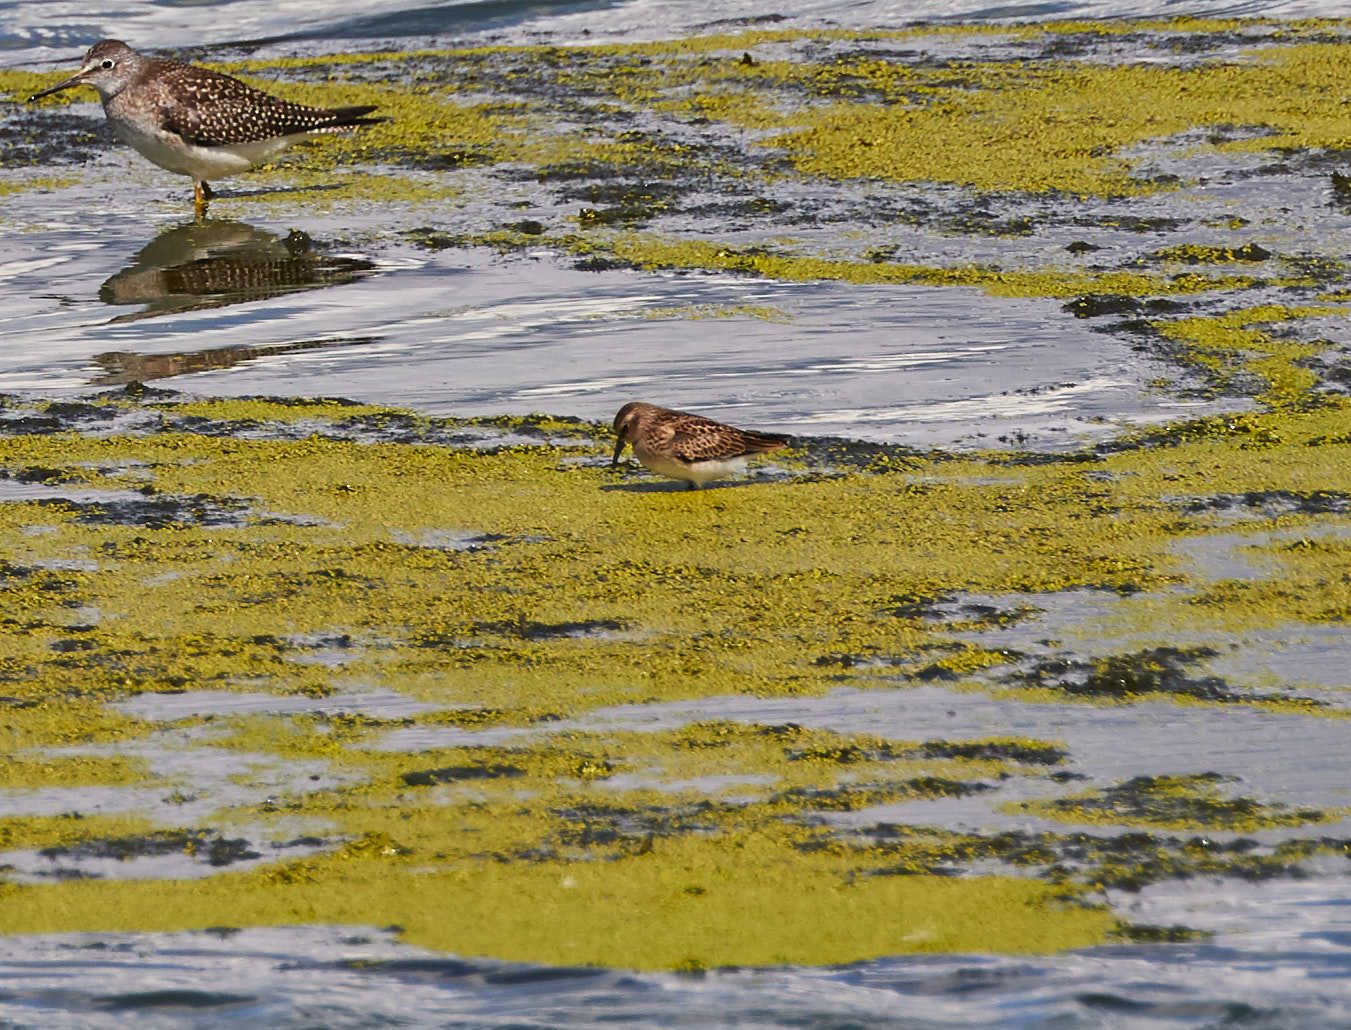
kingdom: Animalia
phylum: Chordata
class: Aves
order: Charadriiformes
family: Scolopacidae
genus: Calidris
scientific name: Calidris minutilla
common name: Least sandpiper
